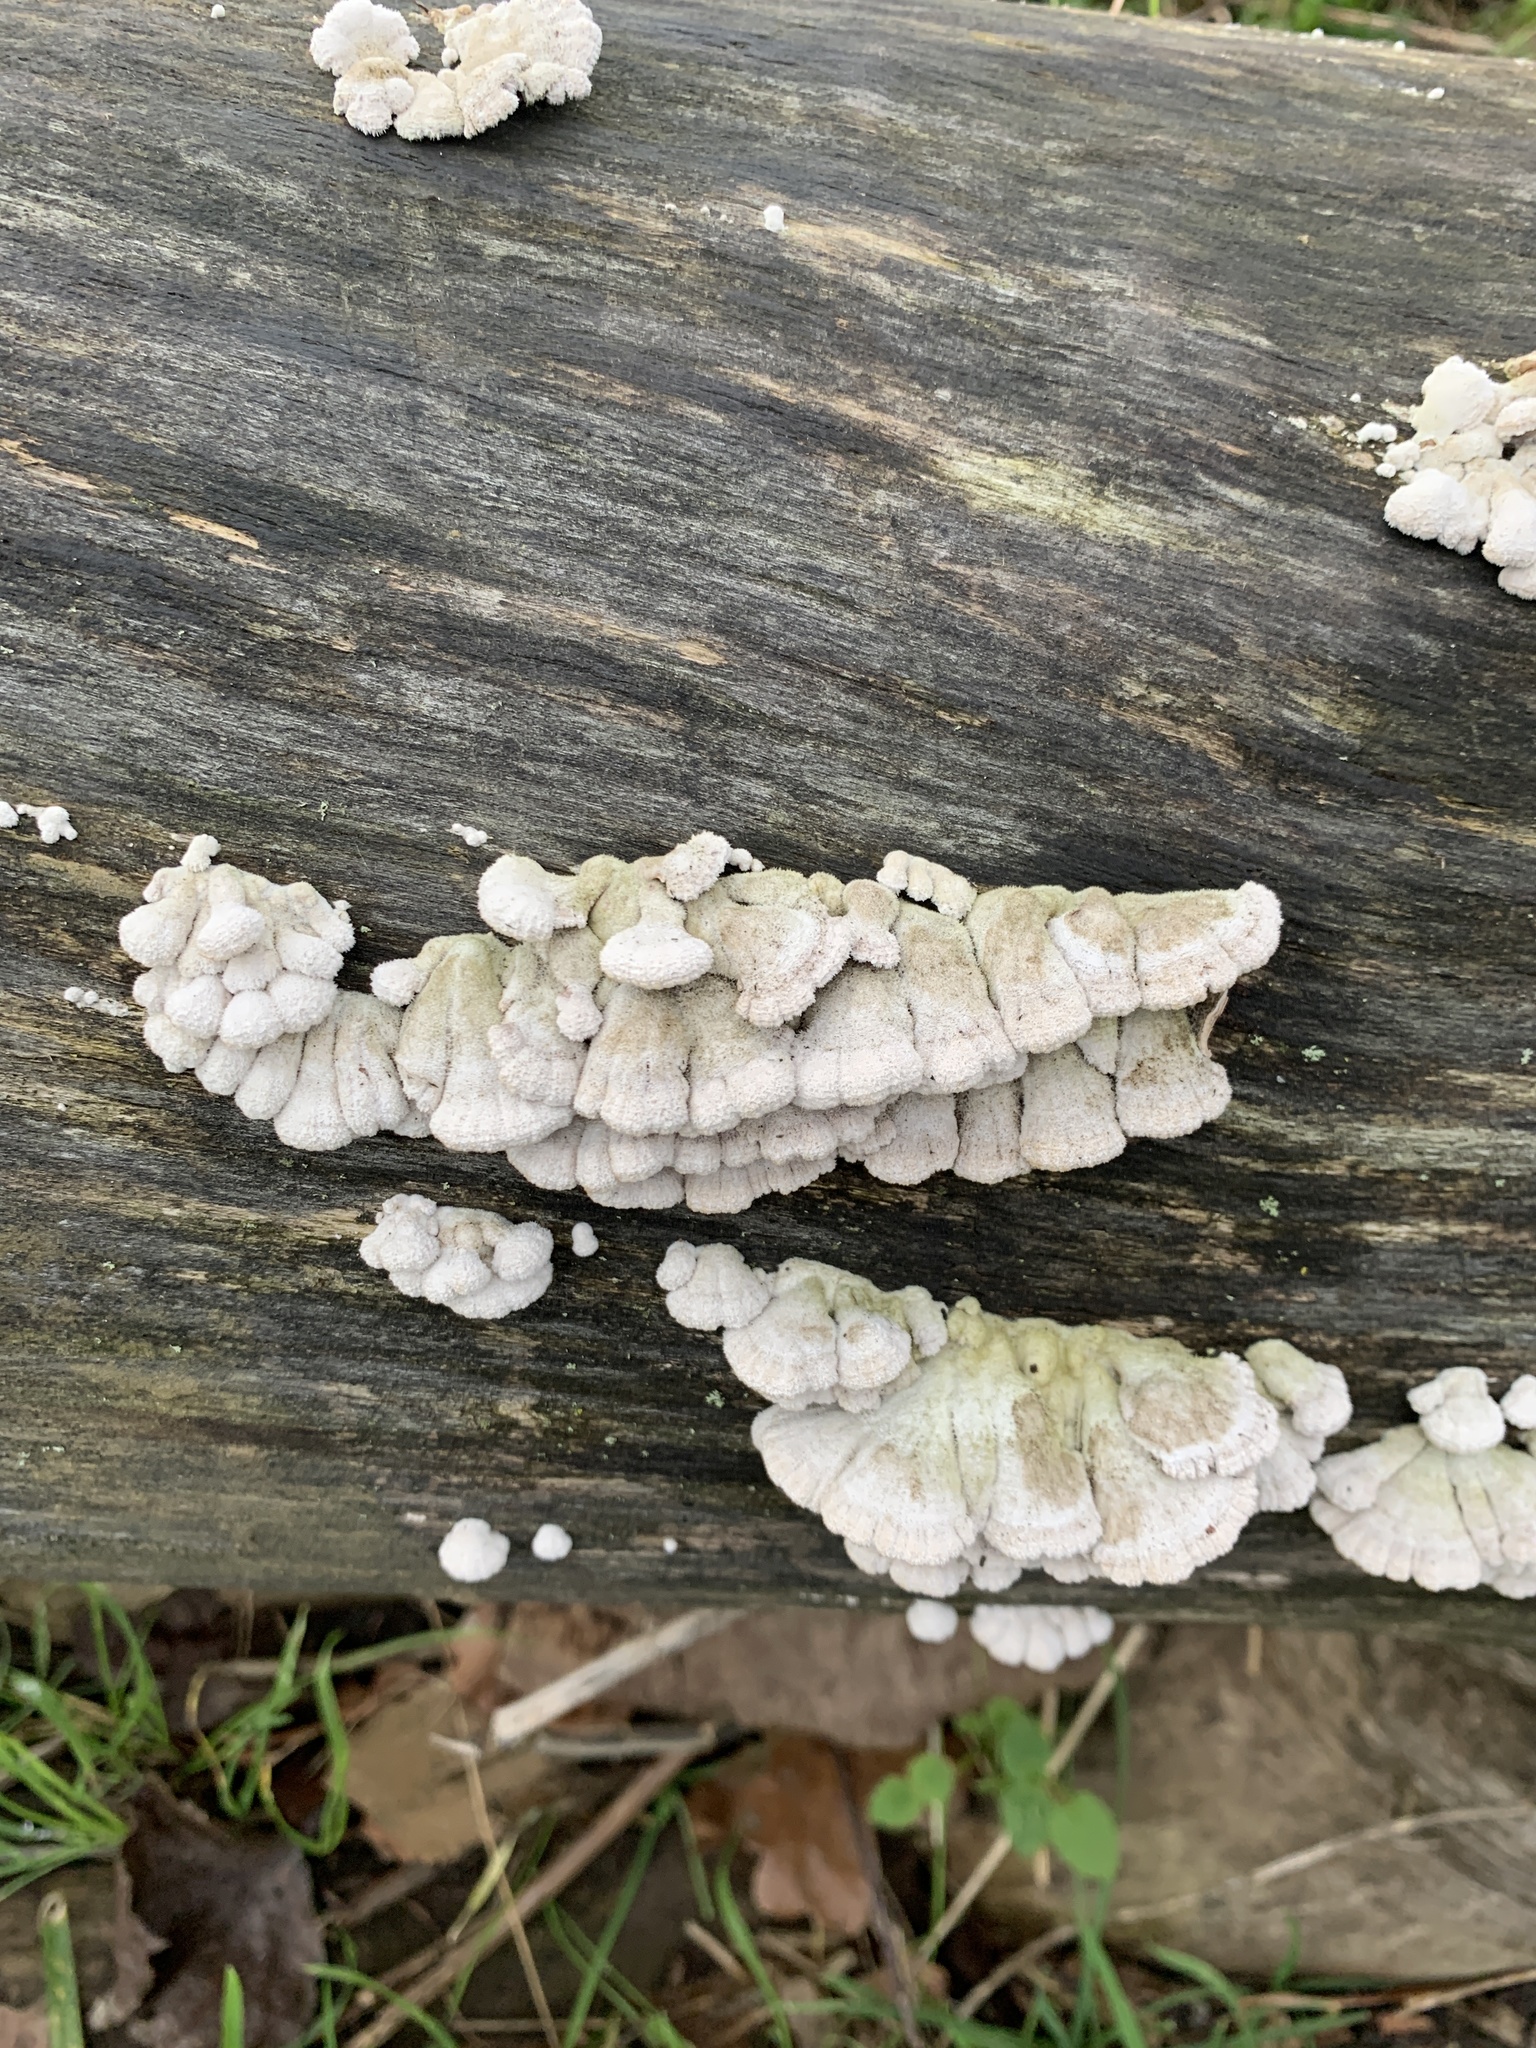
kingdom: Fungi
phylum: Basidiomycota
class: Agaricomycetes
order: Agaricales
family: Schizophyllaceae
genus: Schizophyllum
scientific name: Schizophyllum commune
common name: Common porecrust
